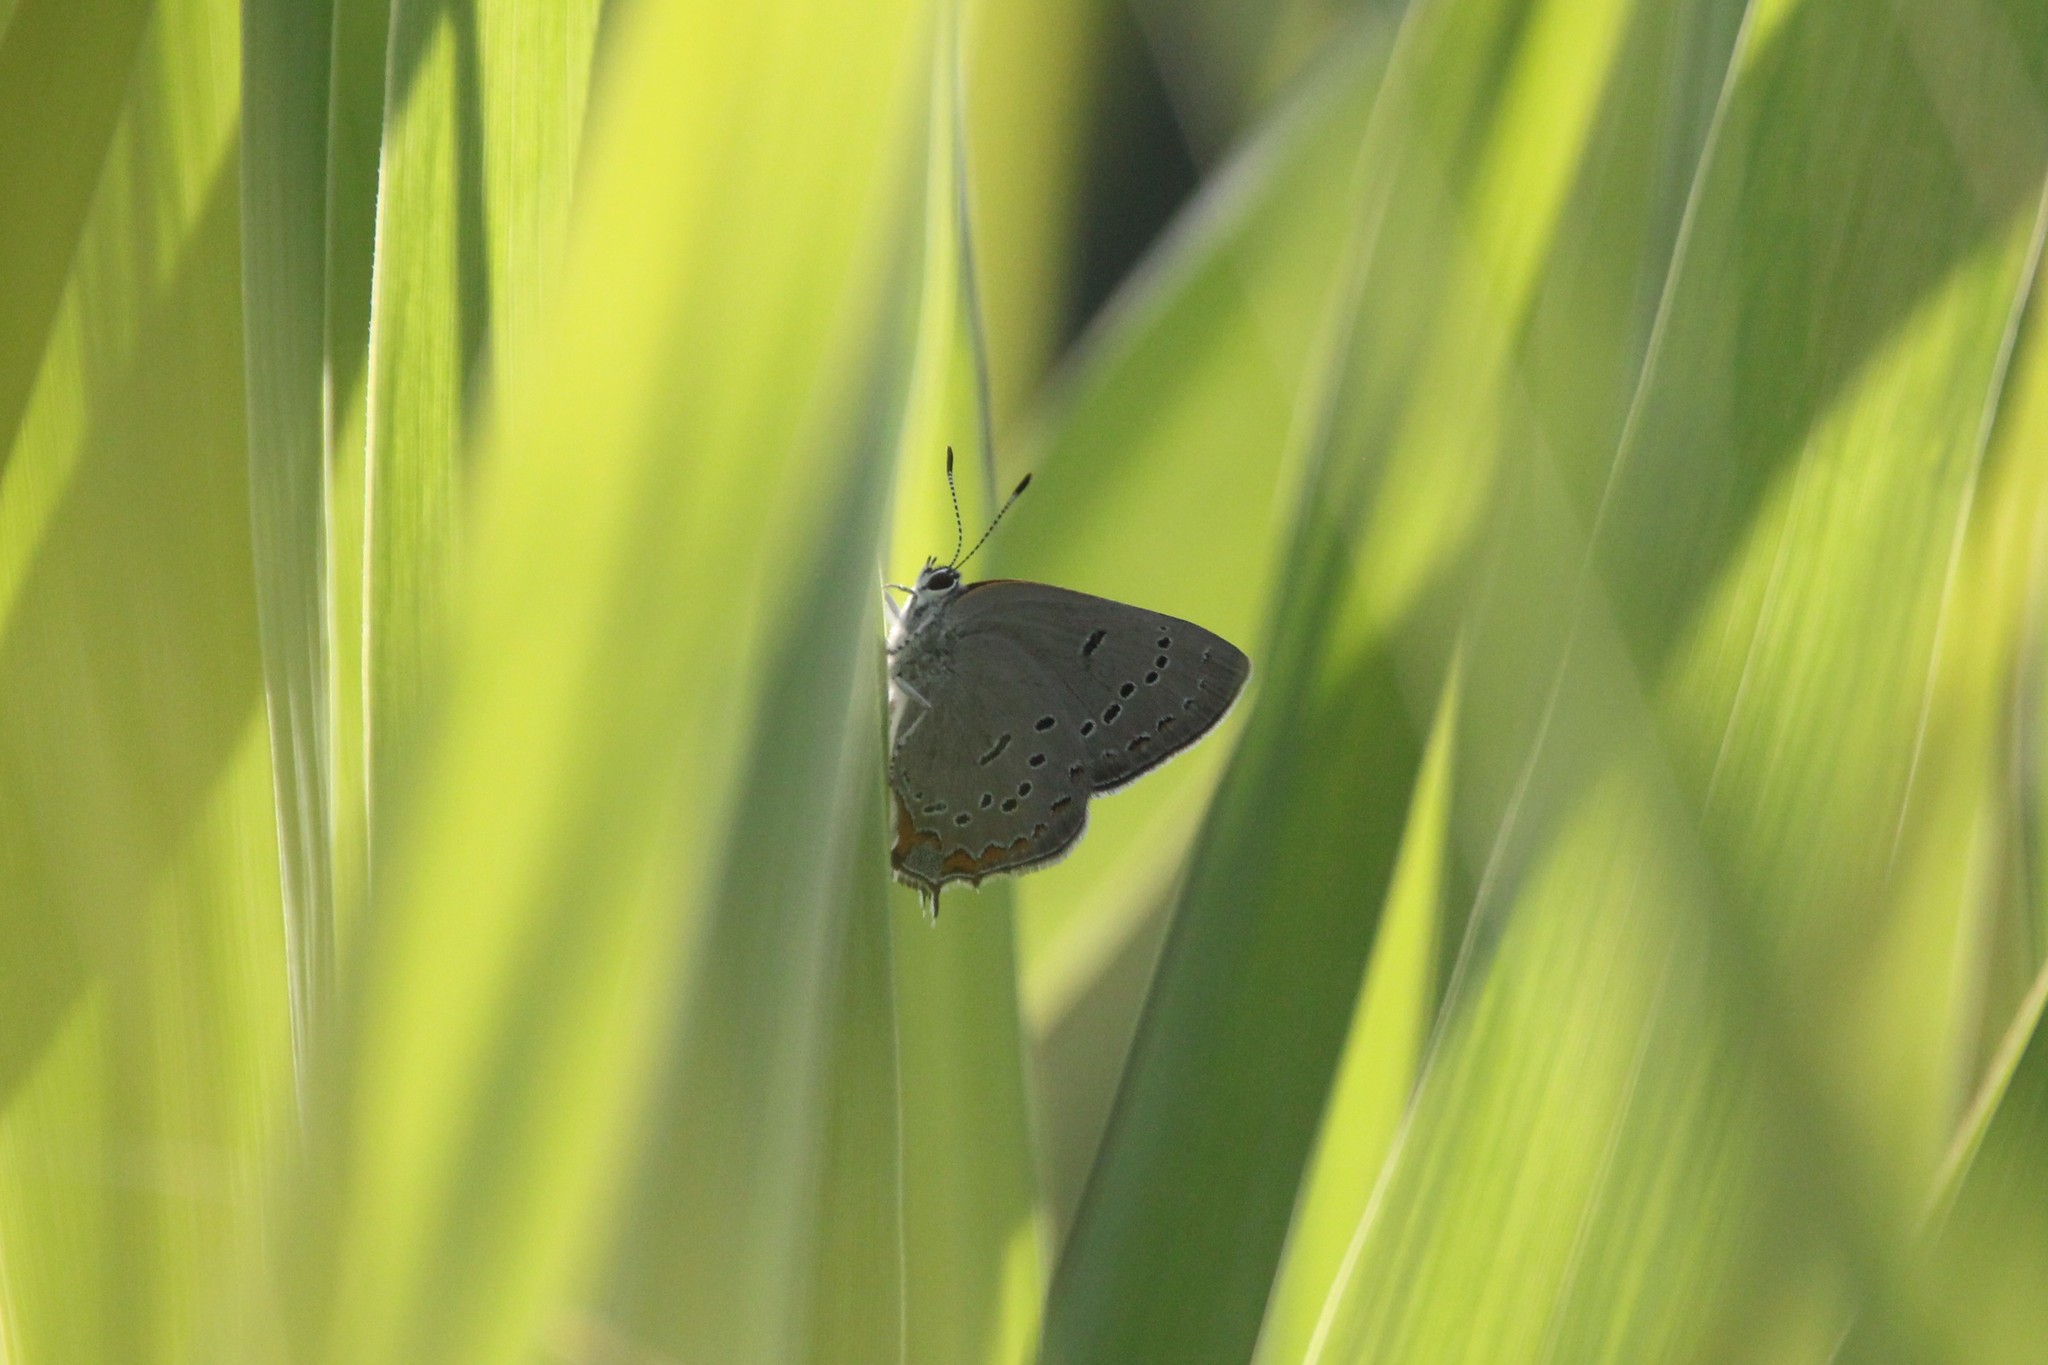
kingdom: Animalia
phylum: Arthropoda
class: Insecta
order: Lepidoptera
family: Lycaenidae
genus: Strymon
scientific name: Strymon acadica
